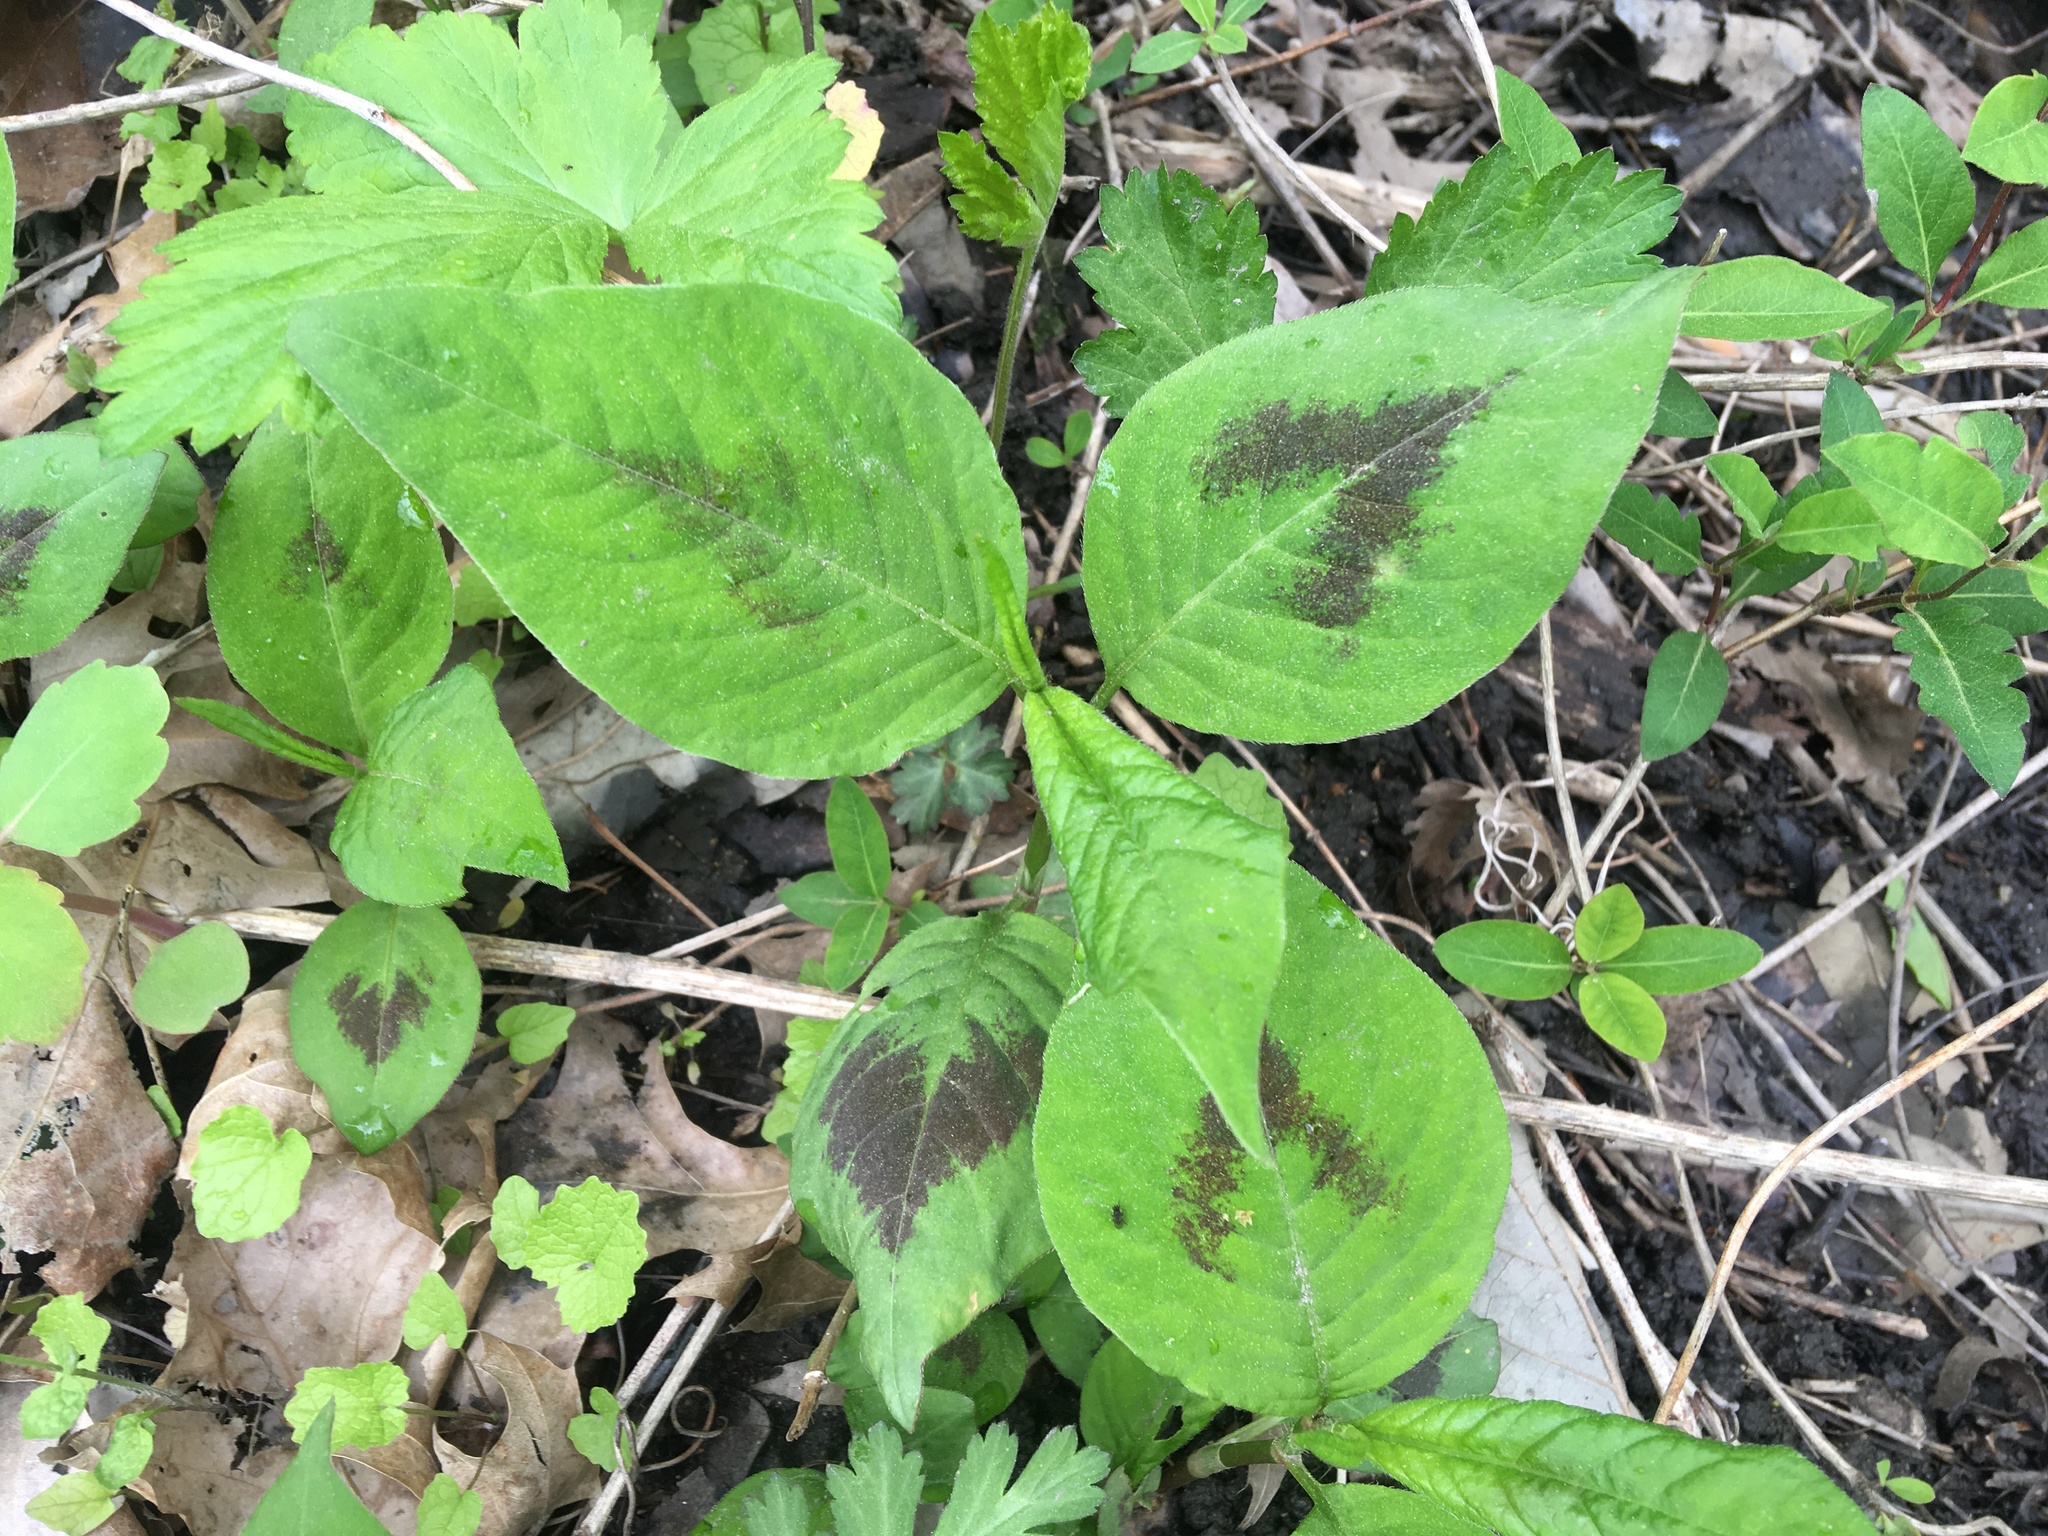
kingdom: Plantae
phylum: Tracheophyta
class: Magnoliopsida
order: Caryophyllales
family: Polygonaceae
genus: Persicaria
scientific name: Persicaria virginiana
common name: Jumpseed
